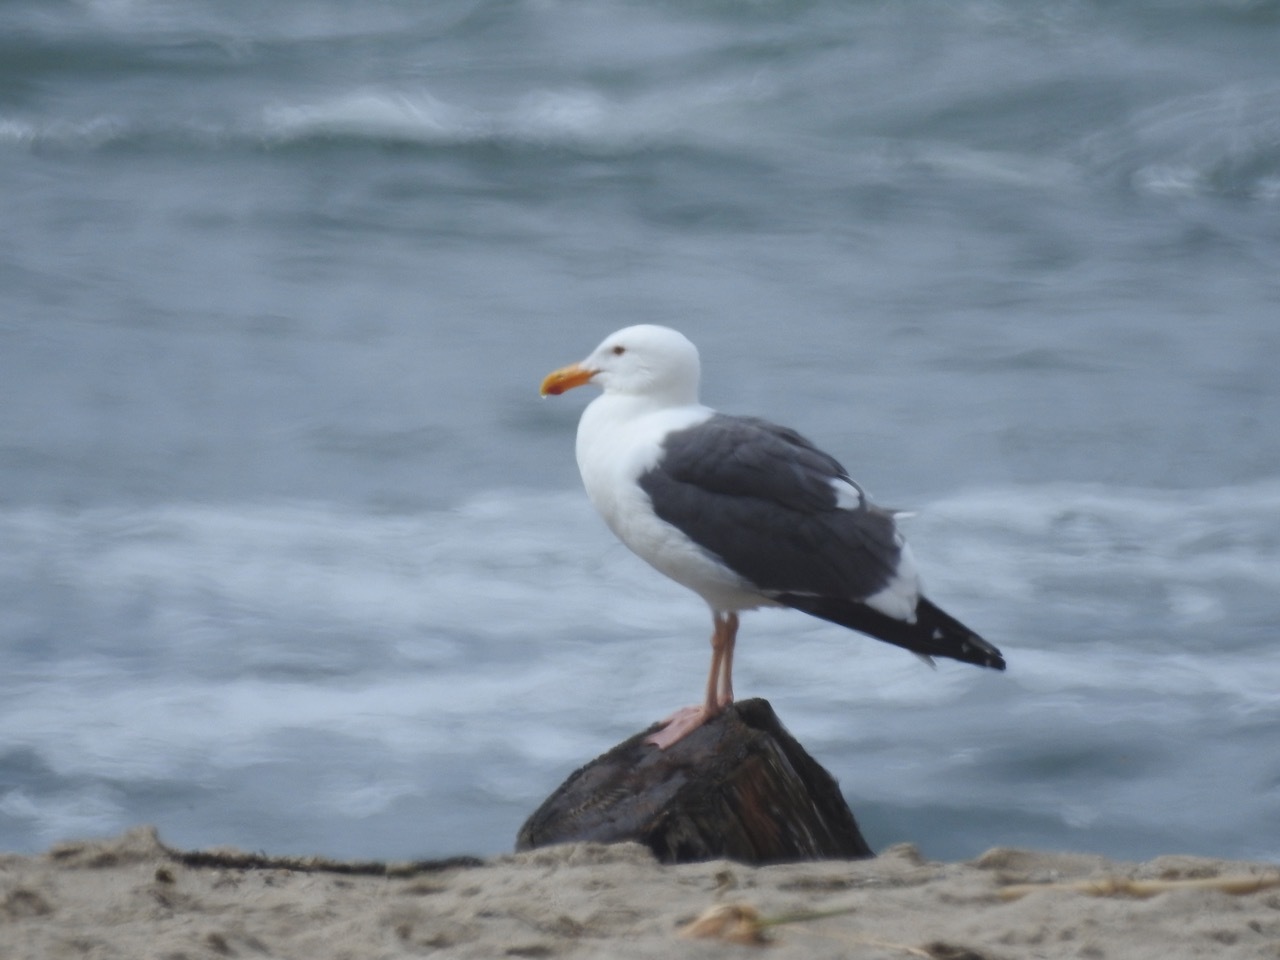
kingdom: Animalia
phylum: Chordata
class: Aves
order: Charadriiformes
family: Laridae
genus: Larus
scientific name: Larus occidentalis
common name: Western gull
